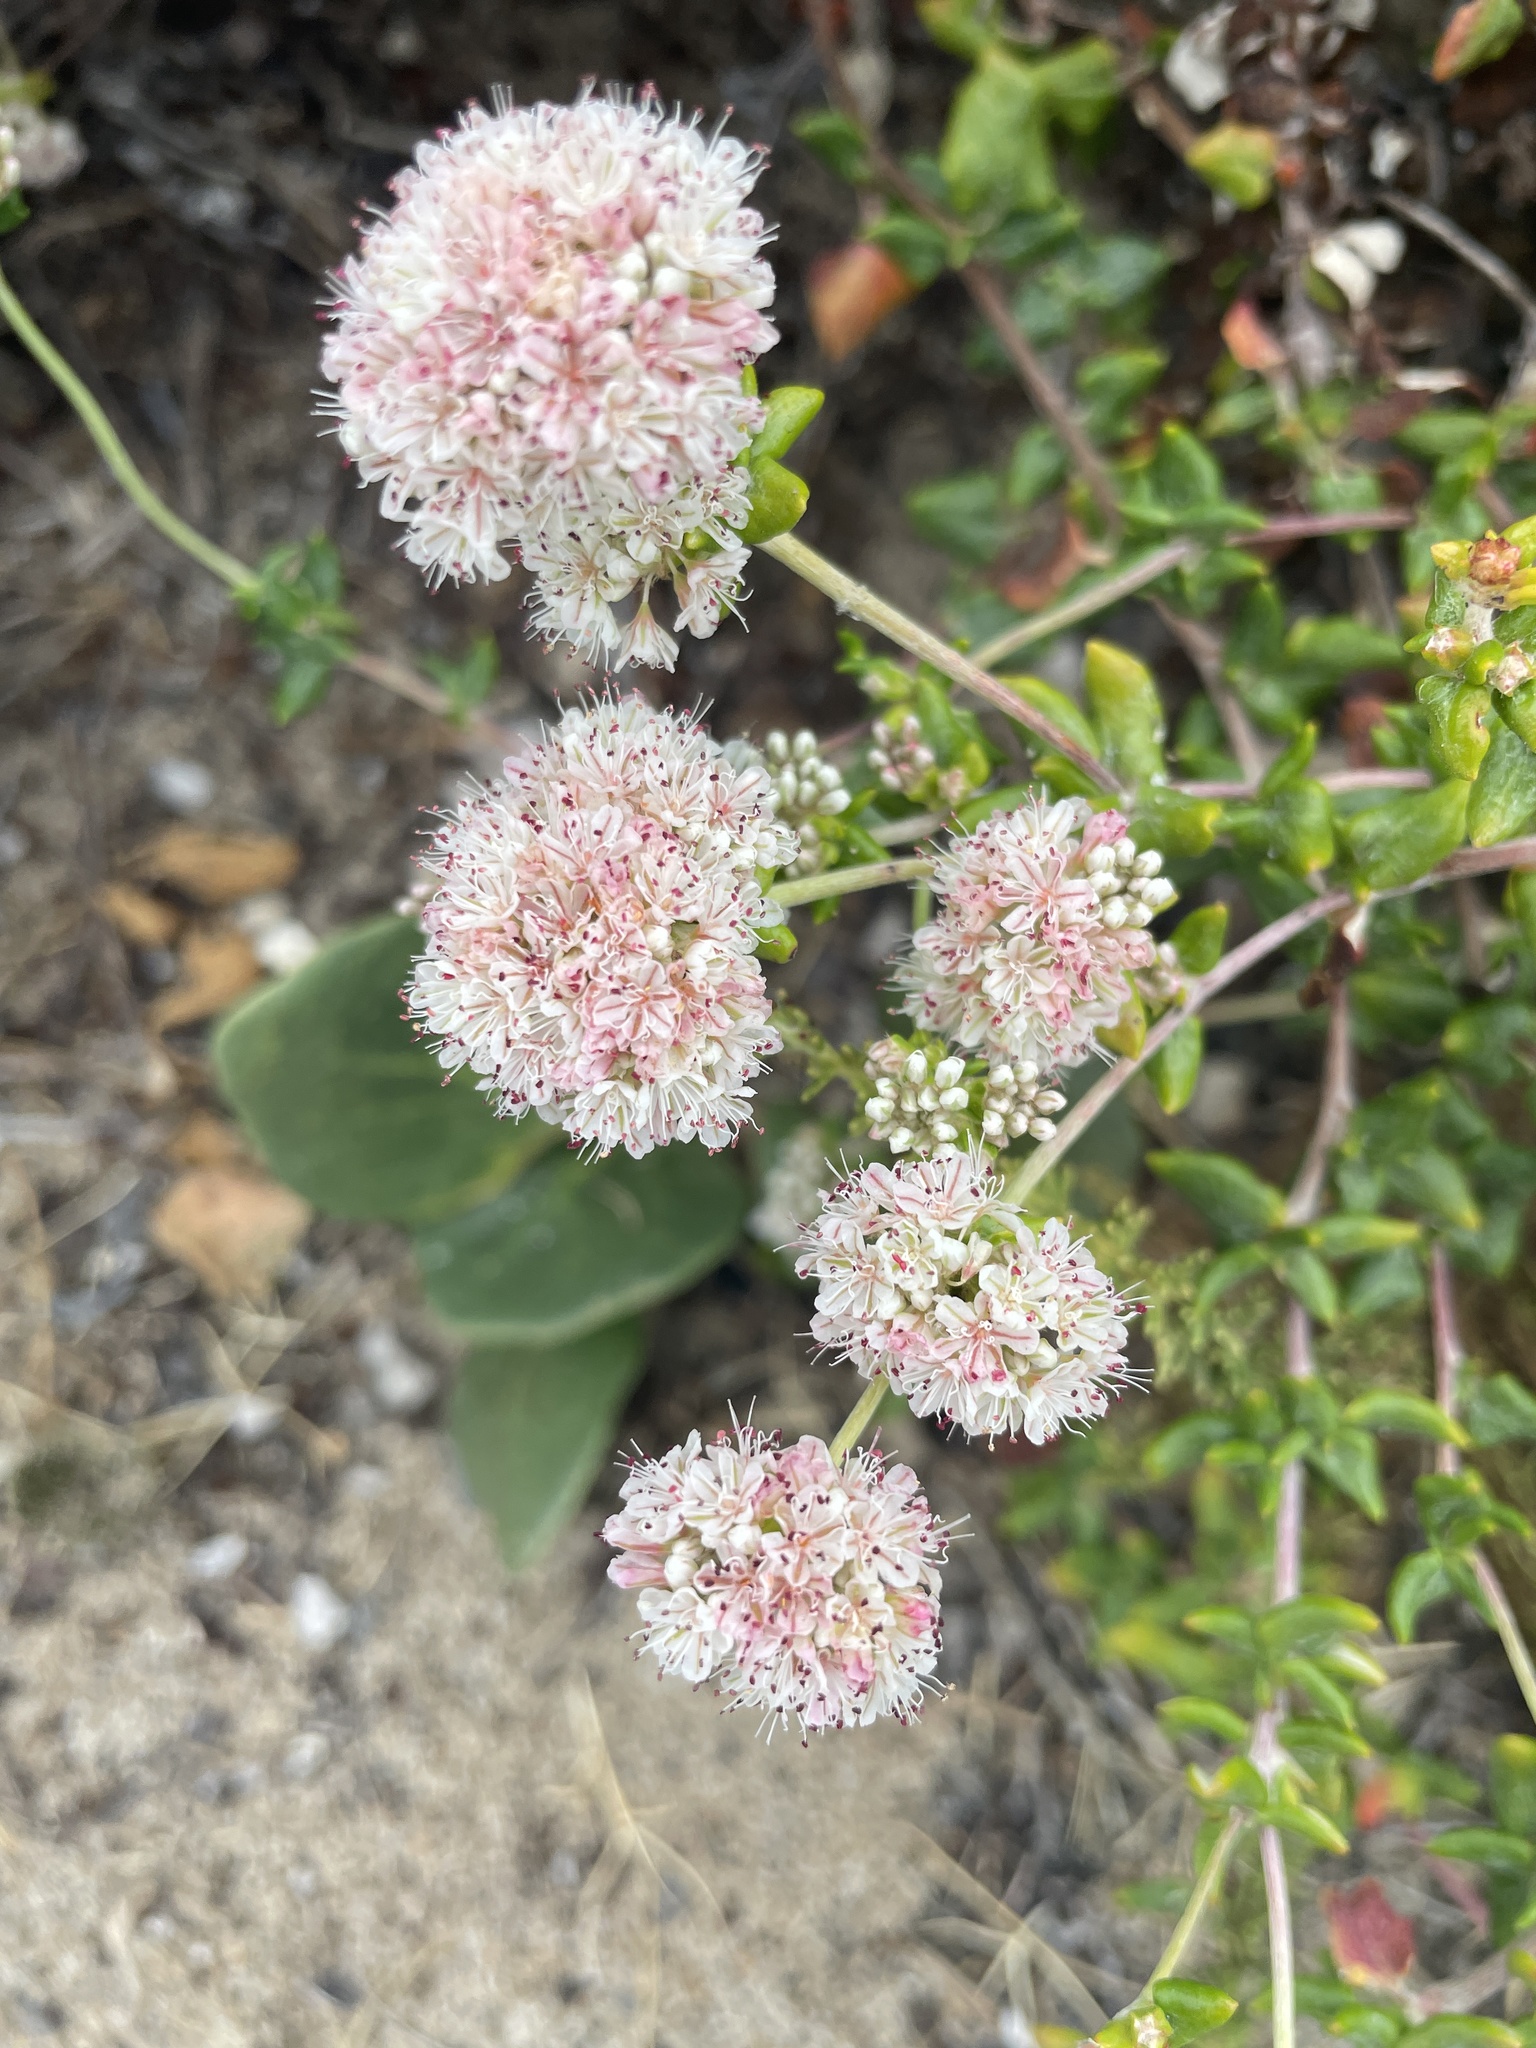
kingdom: Plantae
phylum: Tracheophyta
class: Magnoliopsida
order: Caryophyllales
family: Polygonaceae
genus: Eriogonum
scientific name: Eriogonum parvifolium
